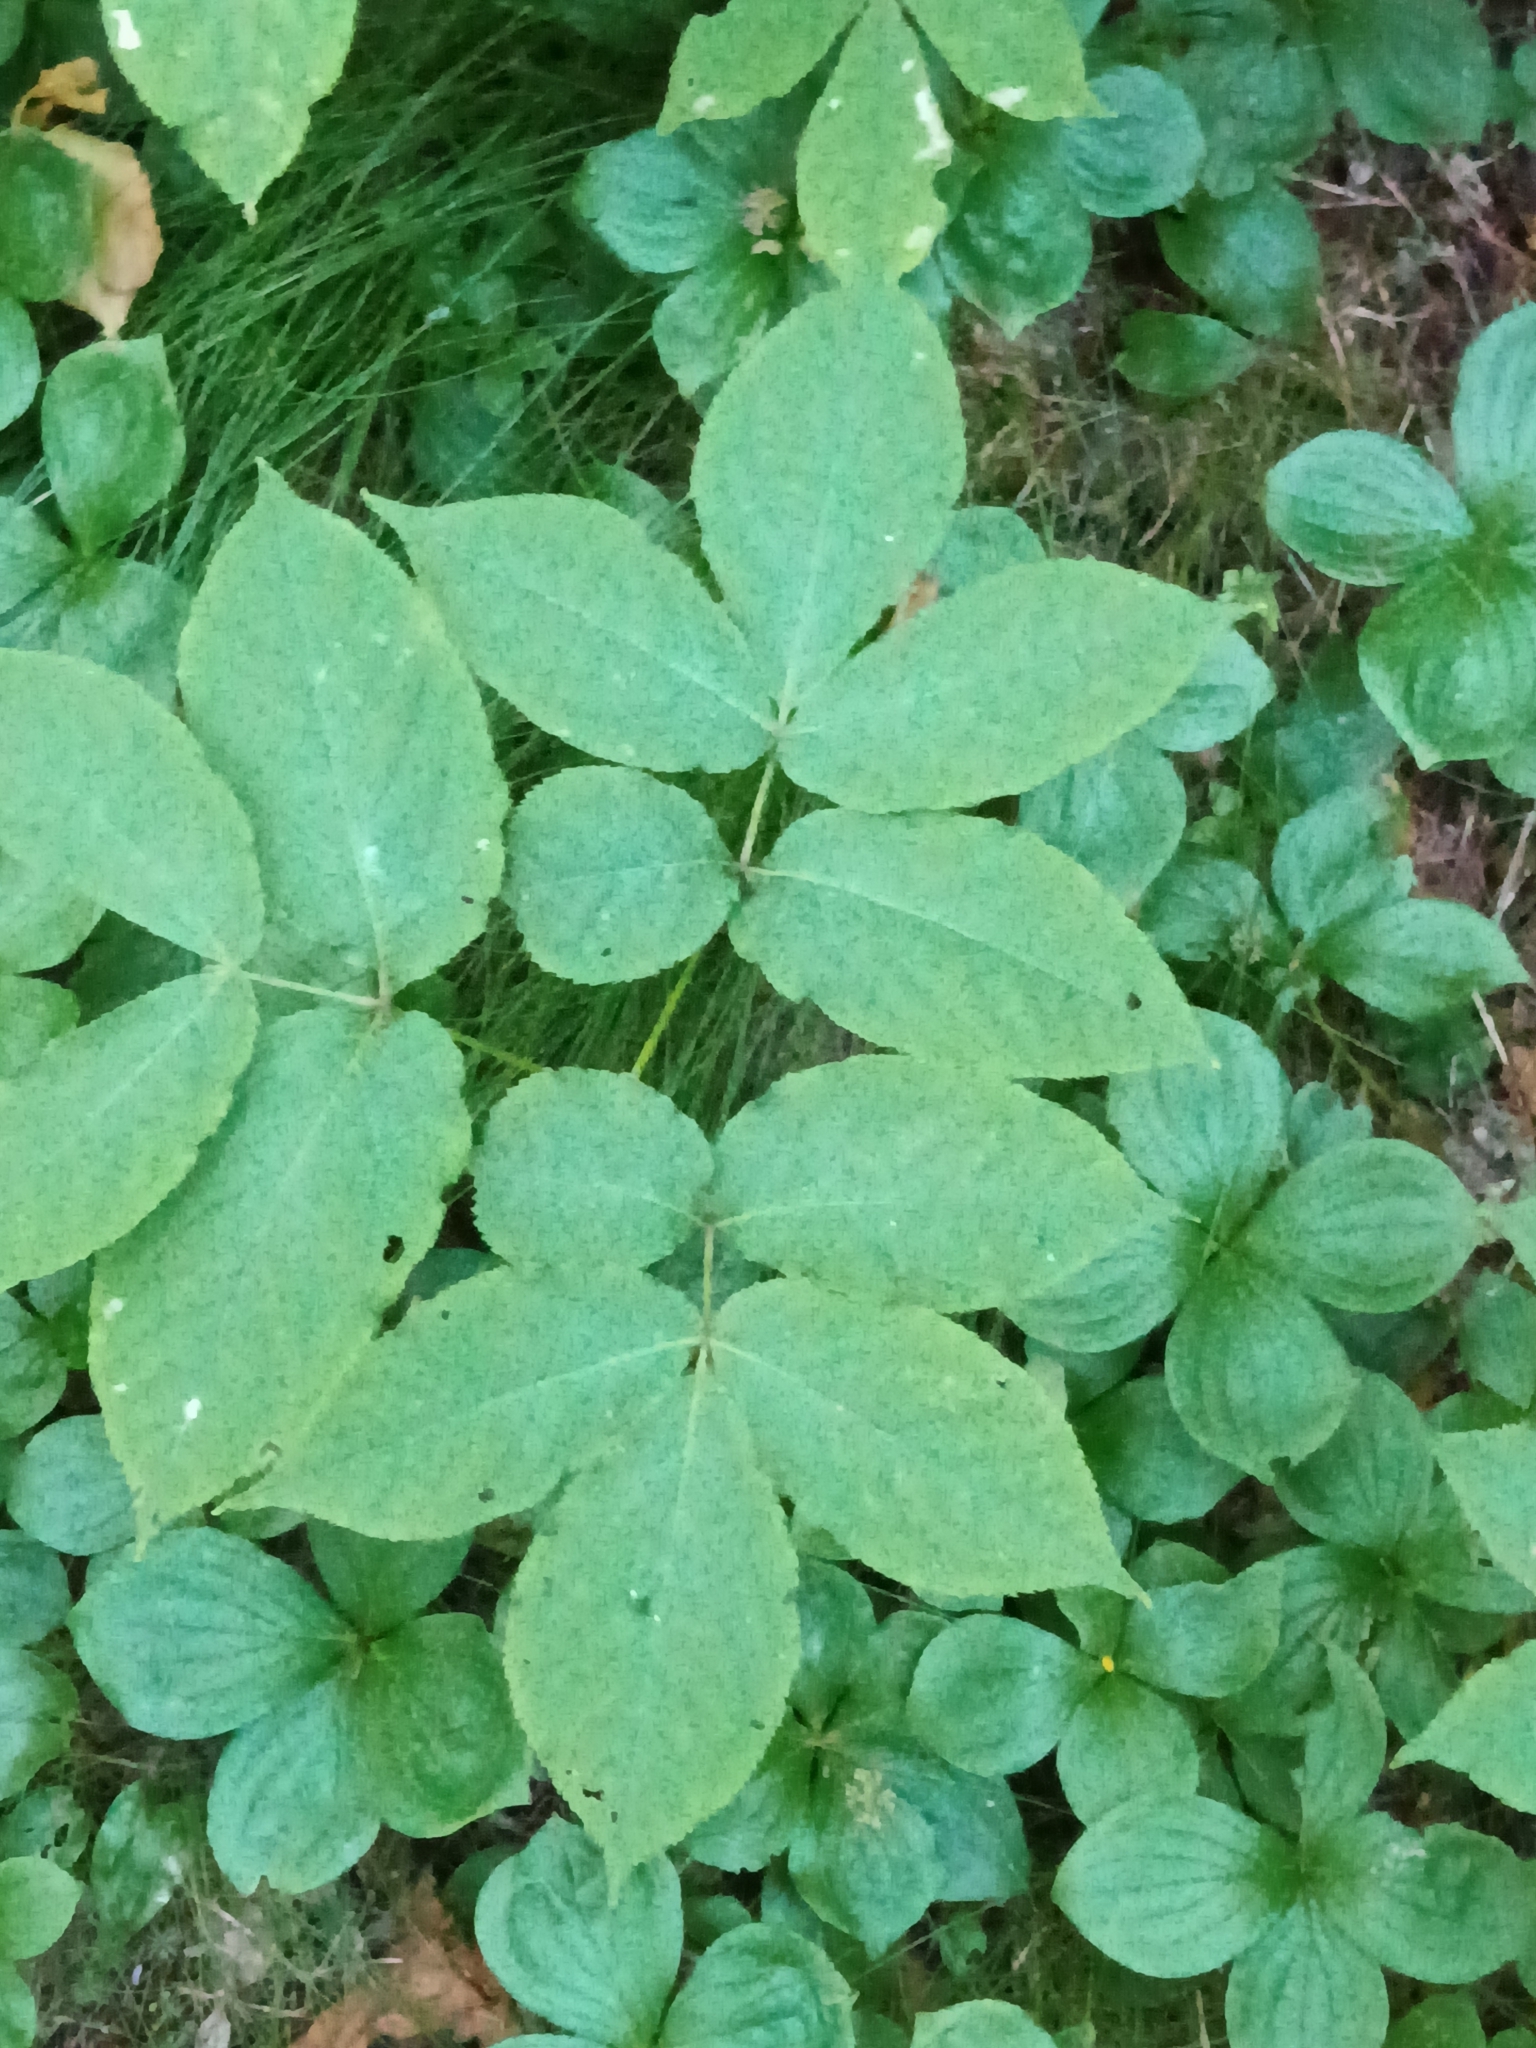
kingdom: Plantae
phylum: Tracheophyta
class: Magnoliopsida
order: Apiales
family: Araliaceae
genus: Aralia
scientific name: Aralia nudicaulis
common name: Wild sarsaparilla
